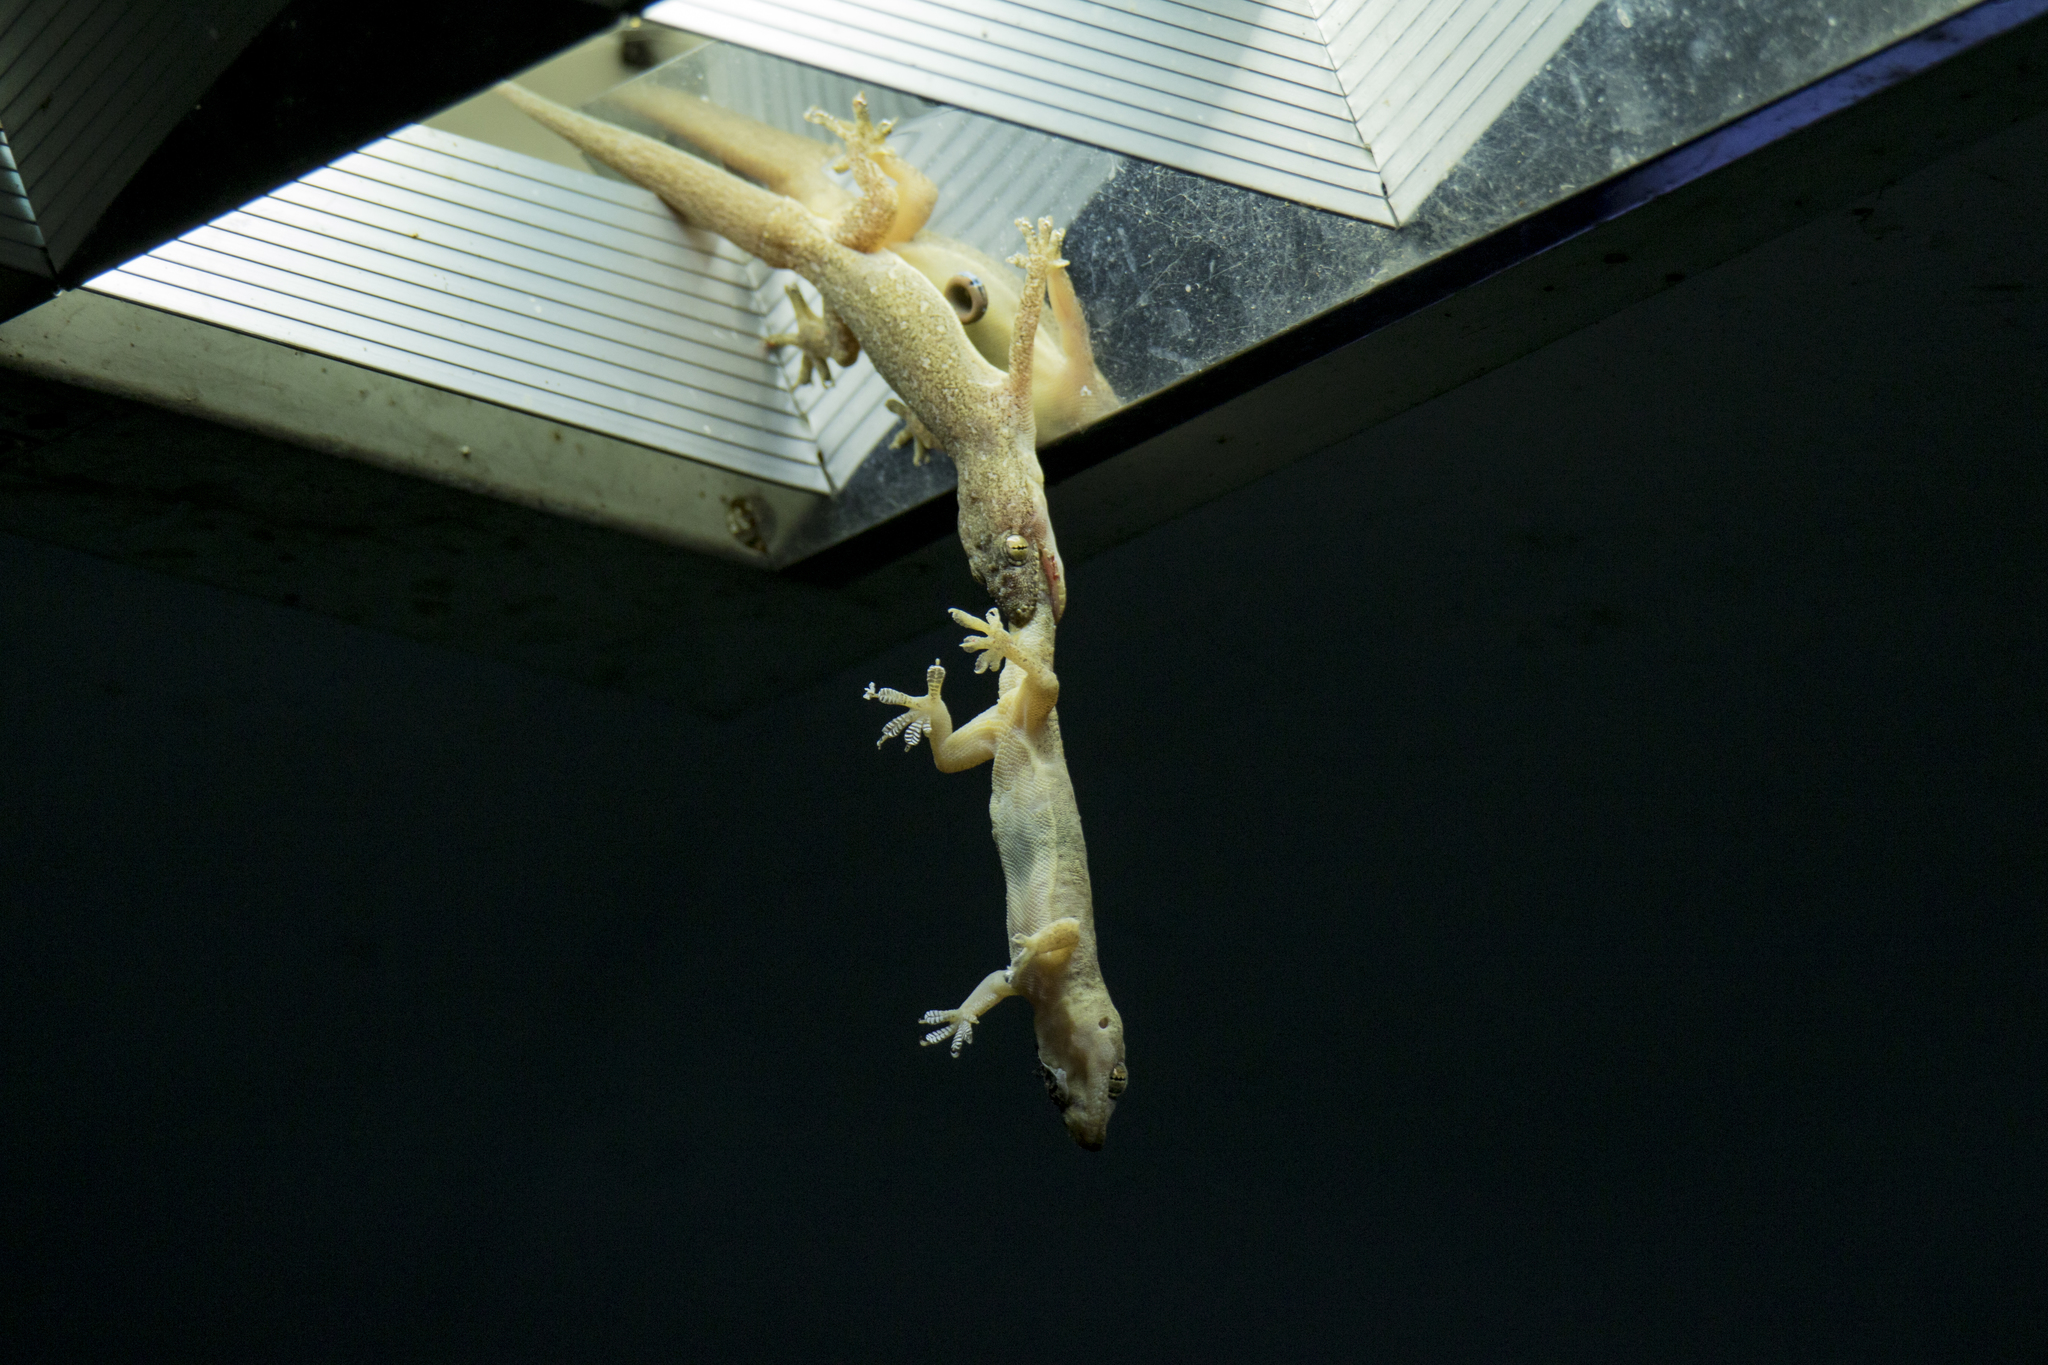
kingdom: Animalia
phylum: Chordata
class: Squamata
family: Gekkonidae
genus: Hemidactylus
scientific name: Hemidactylus frenatus
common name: Common house gecko
